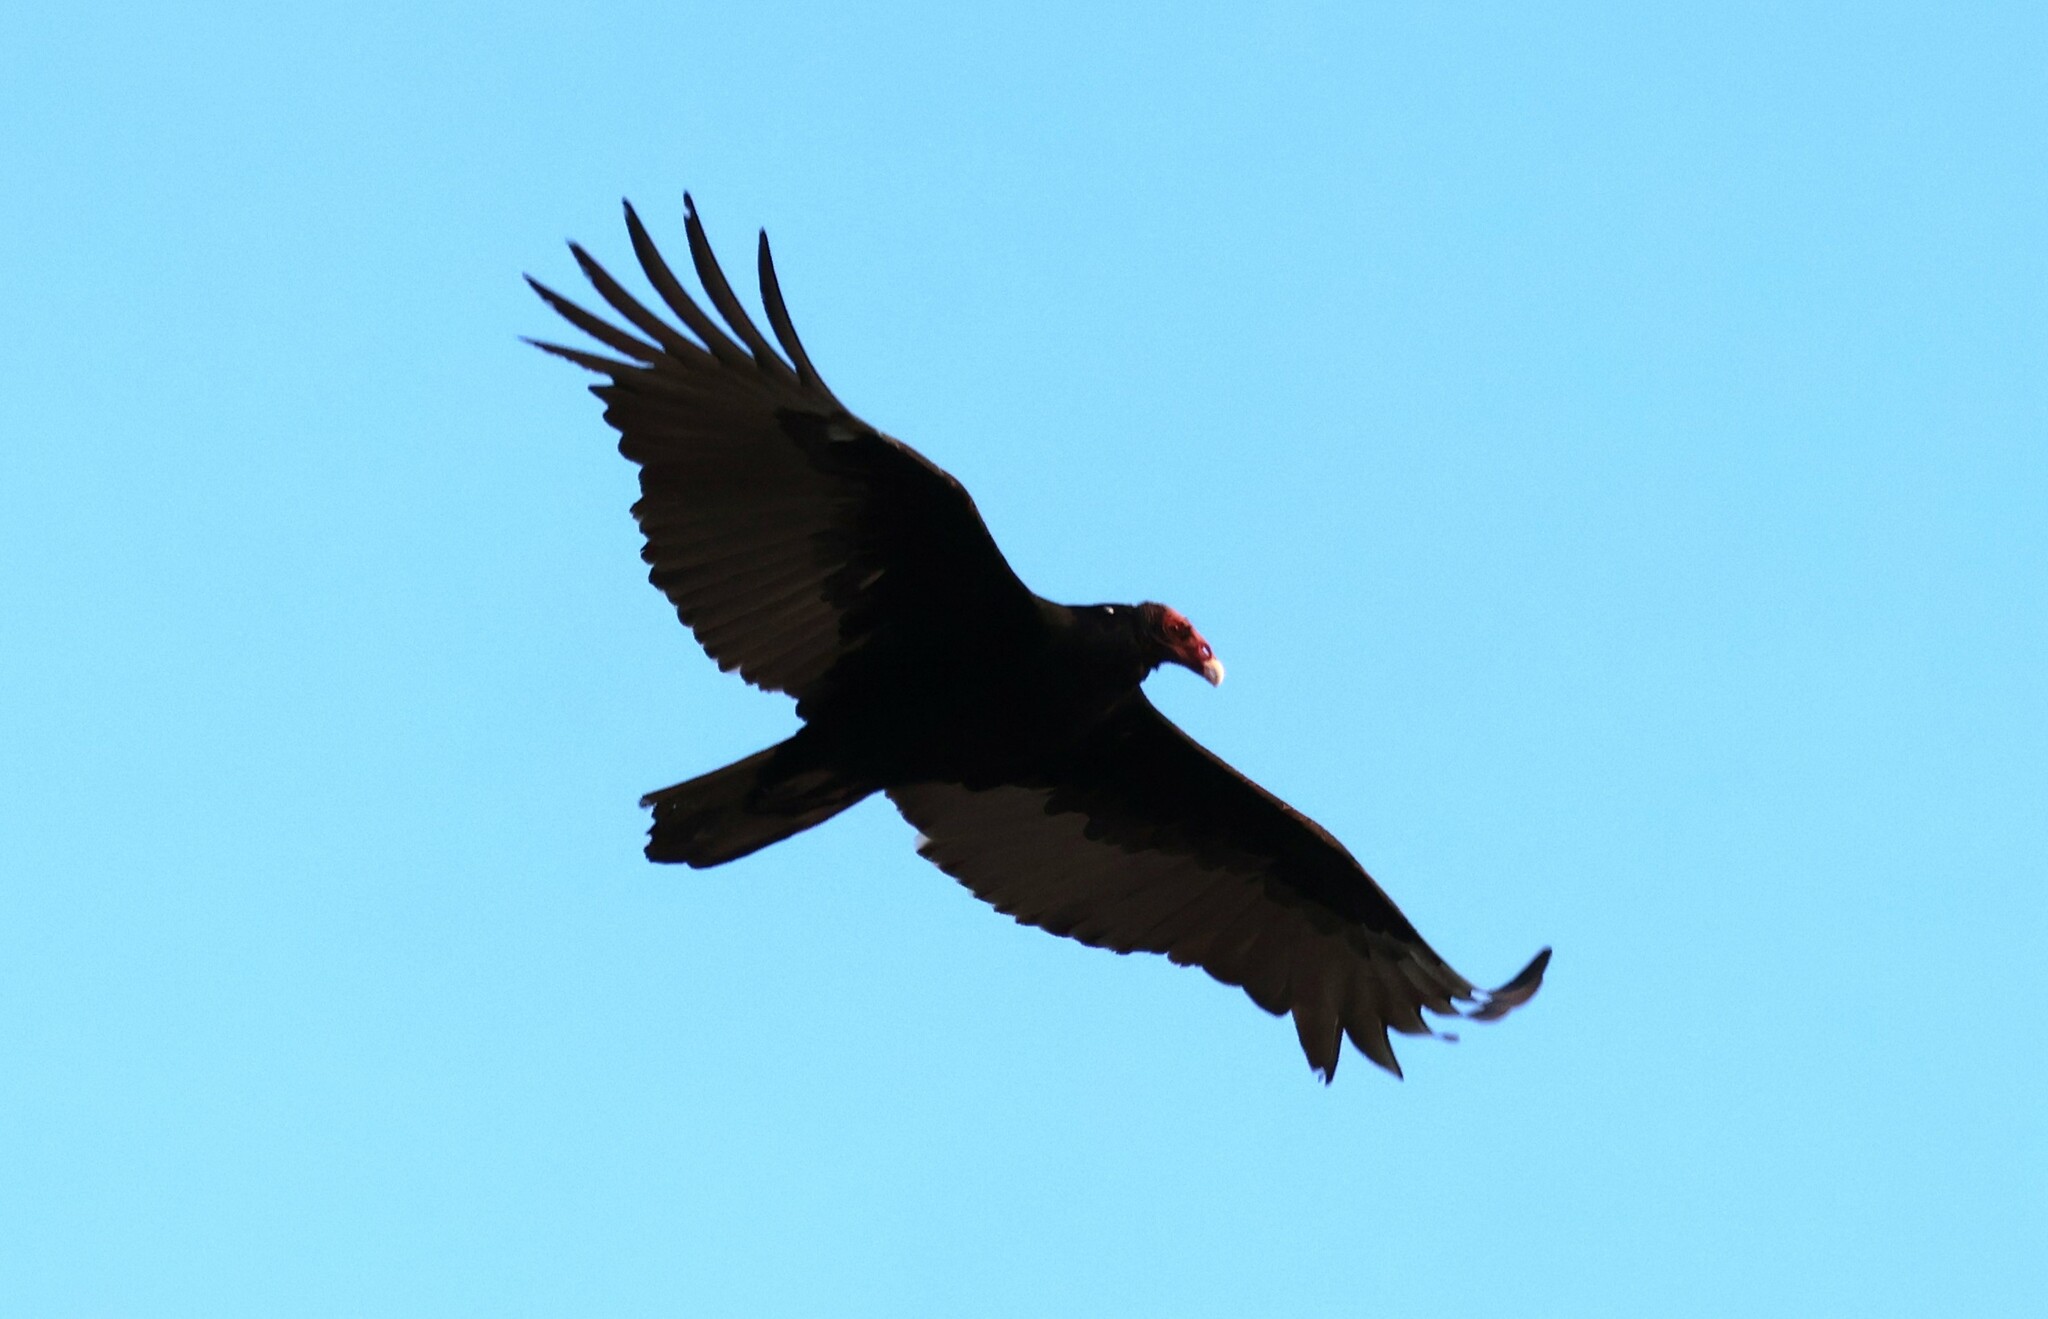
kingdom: Animalia
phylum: Chordata
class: Aves
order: Accipitriformes
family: Cathartidae
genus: Cathartes
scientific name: Cathartes aura
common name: Turkey vulture
